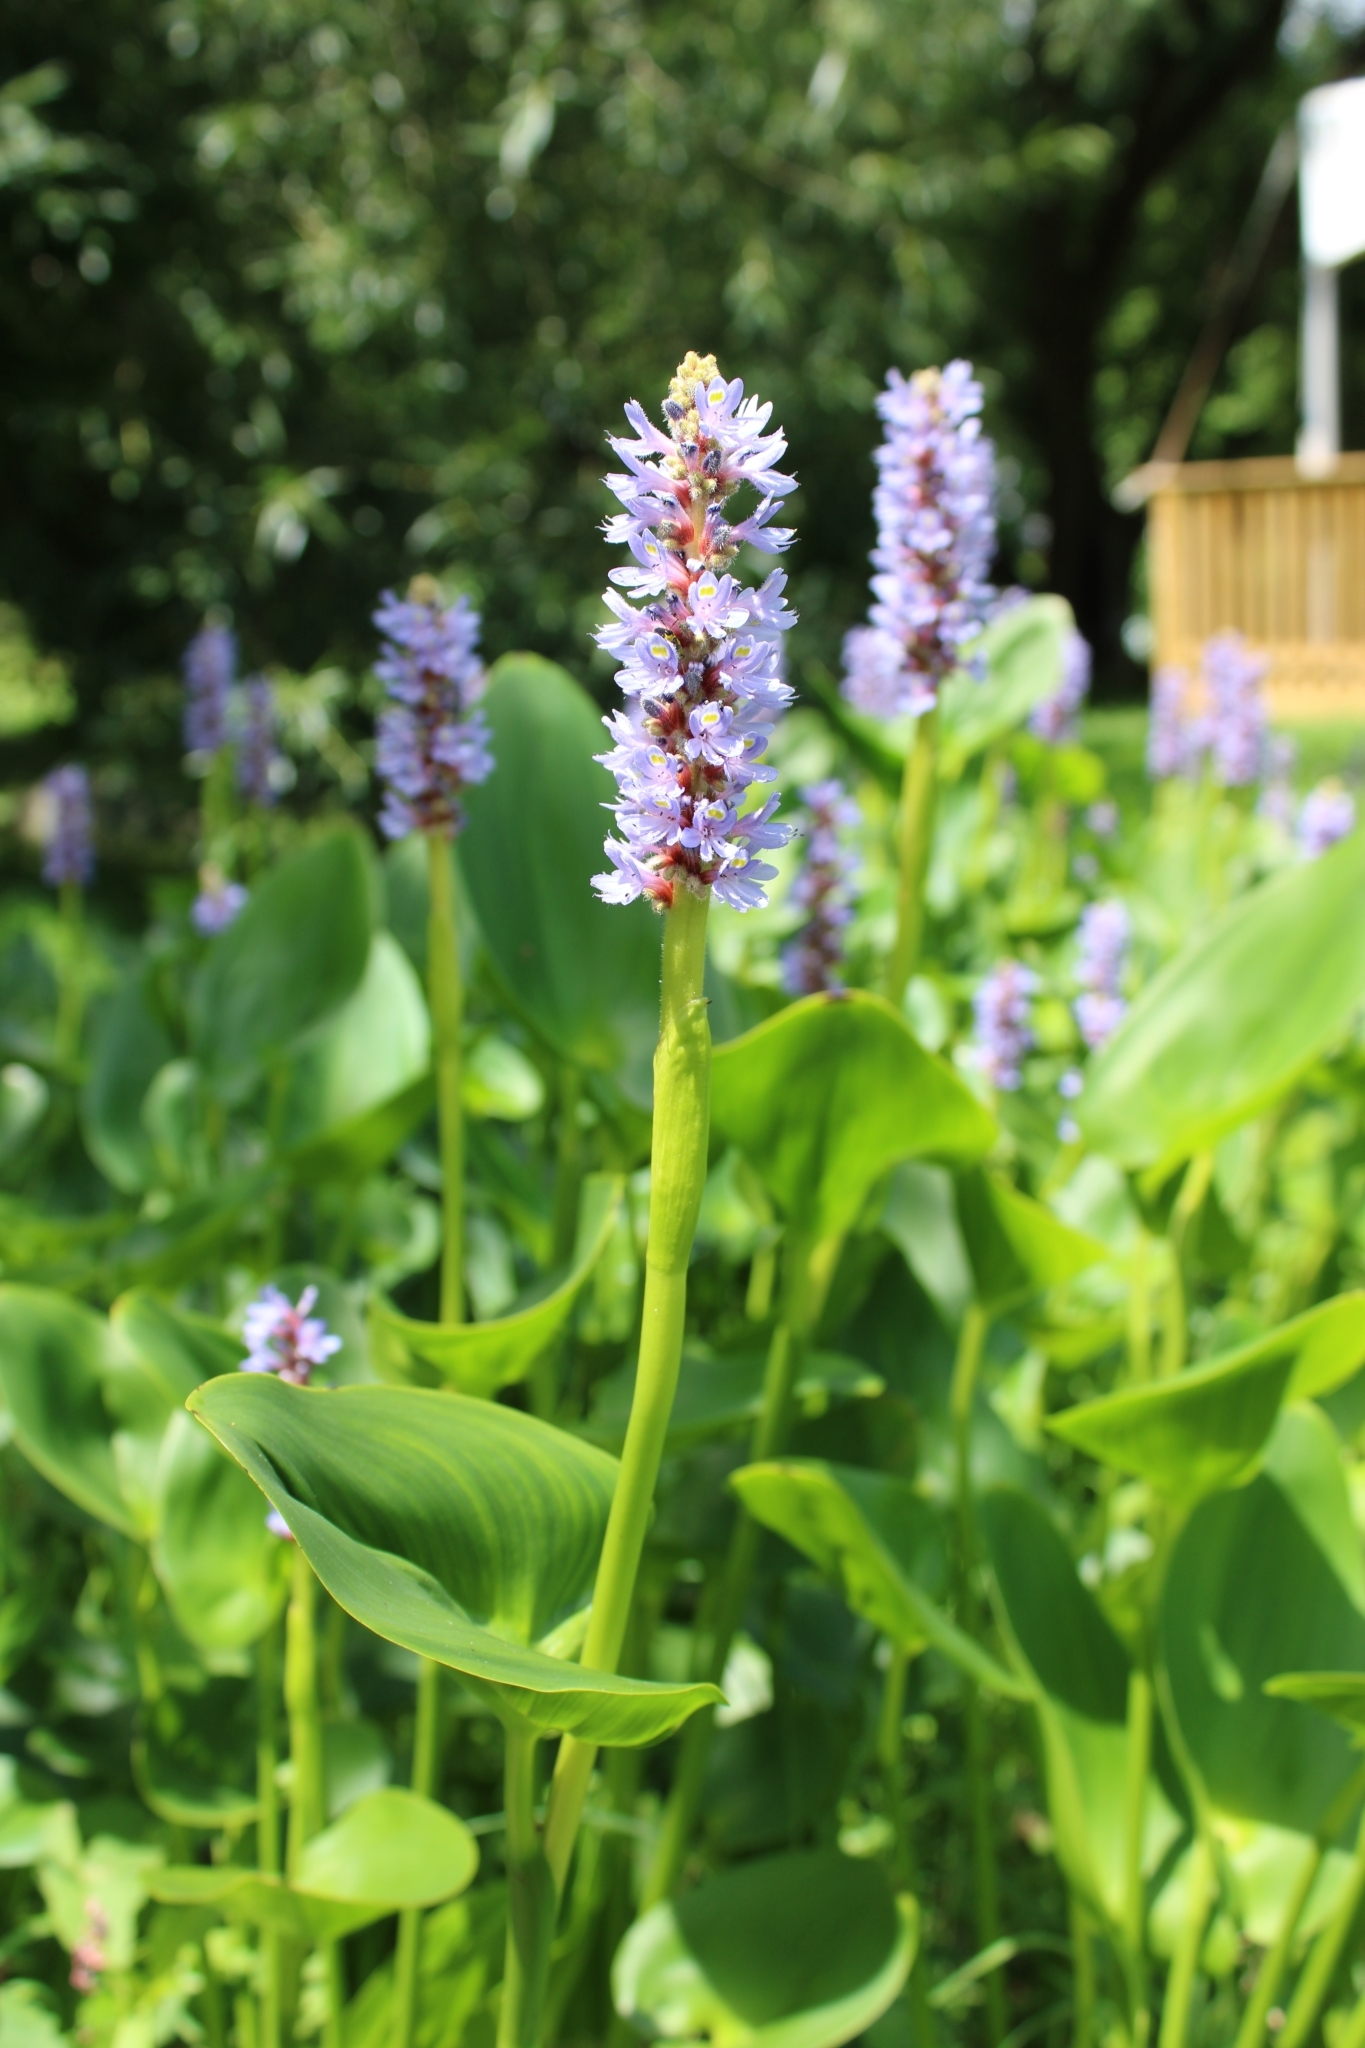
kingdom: Plantae
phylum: Tracheophyta
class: Liliopsida
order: Commelinales
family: Pontederiaceae
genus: Pontederia
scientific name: Pontederia cordata
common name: Pickerelweed
